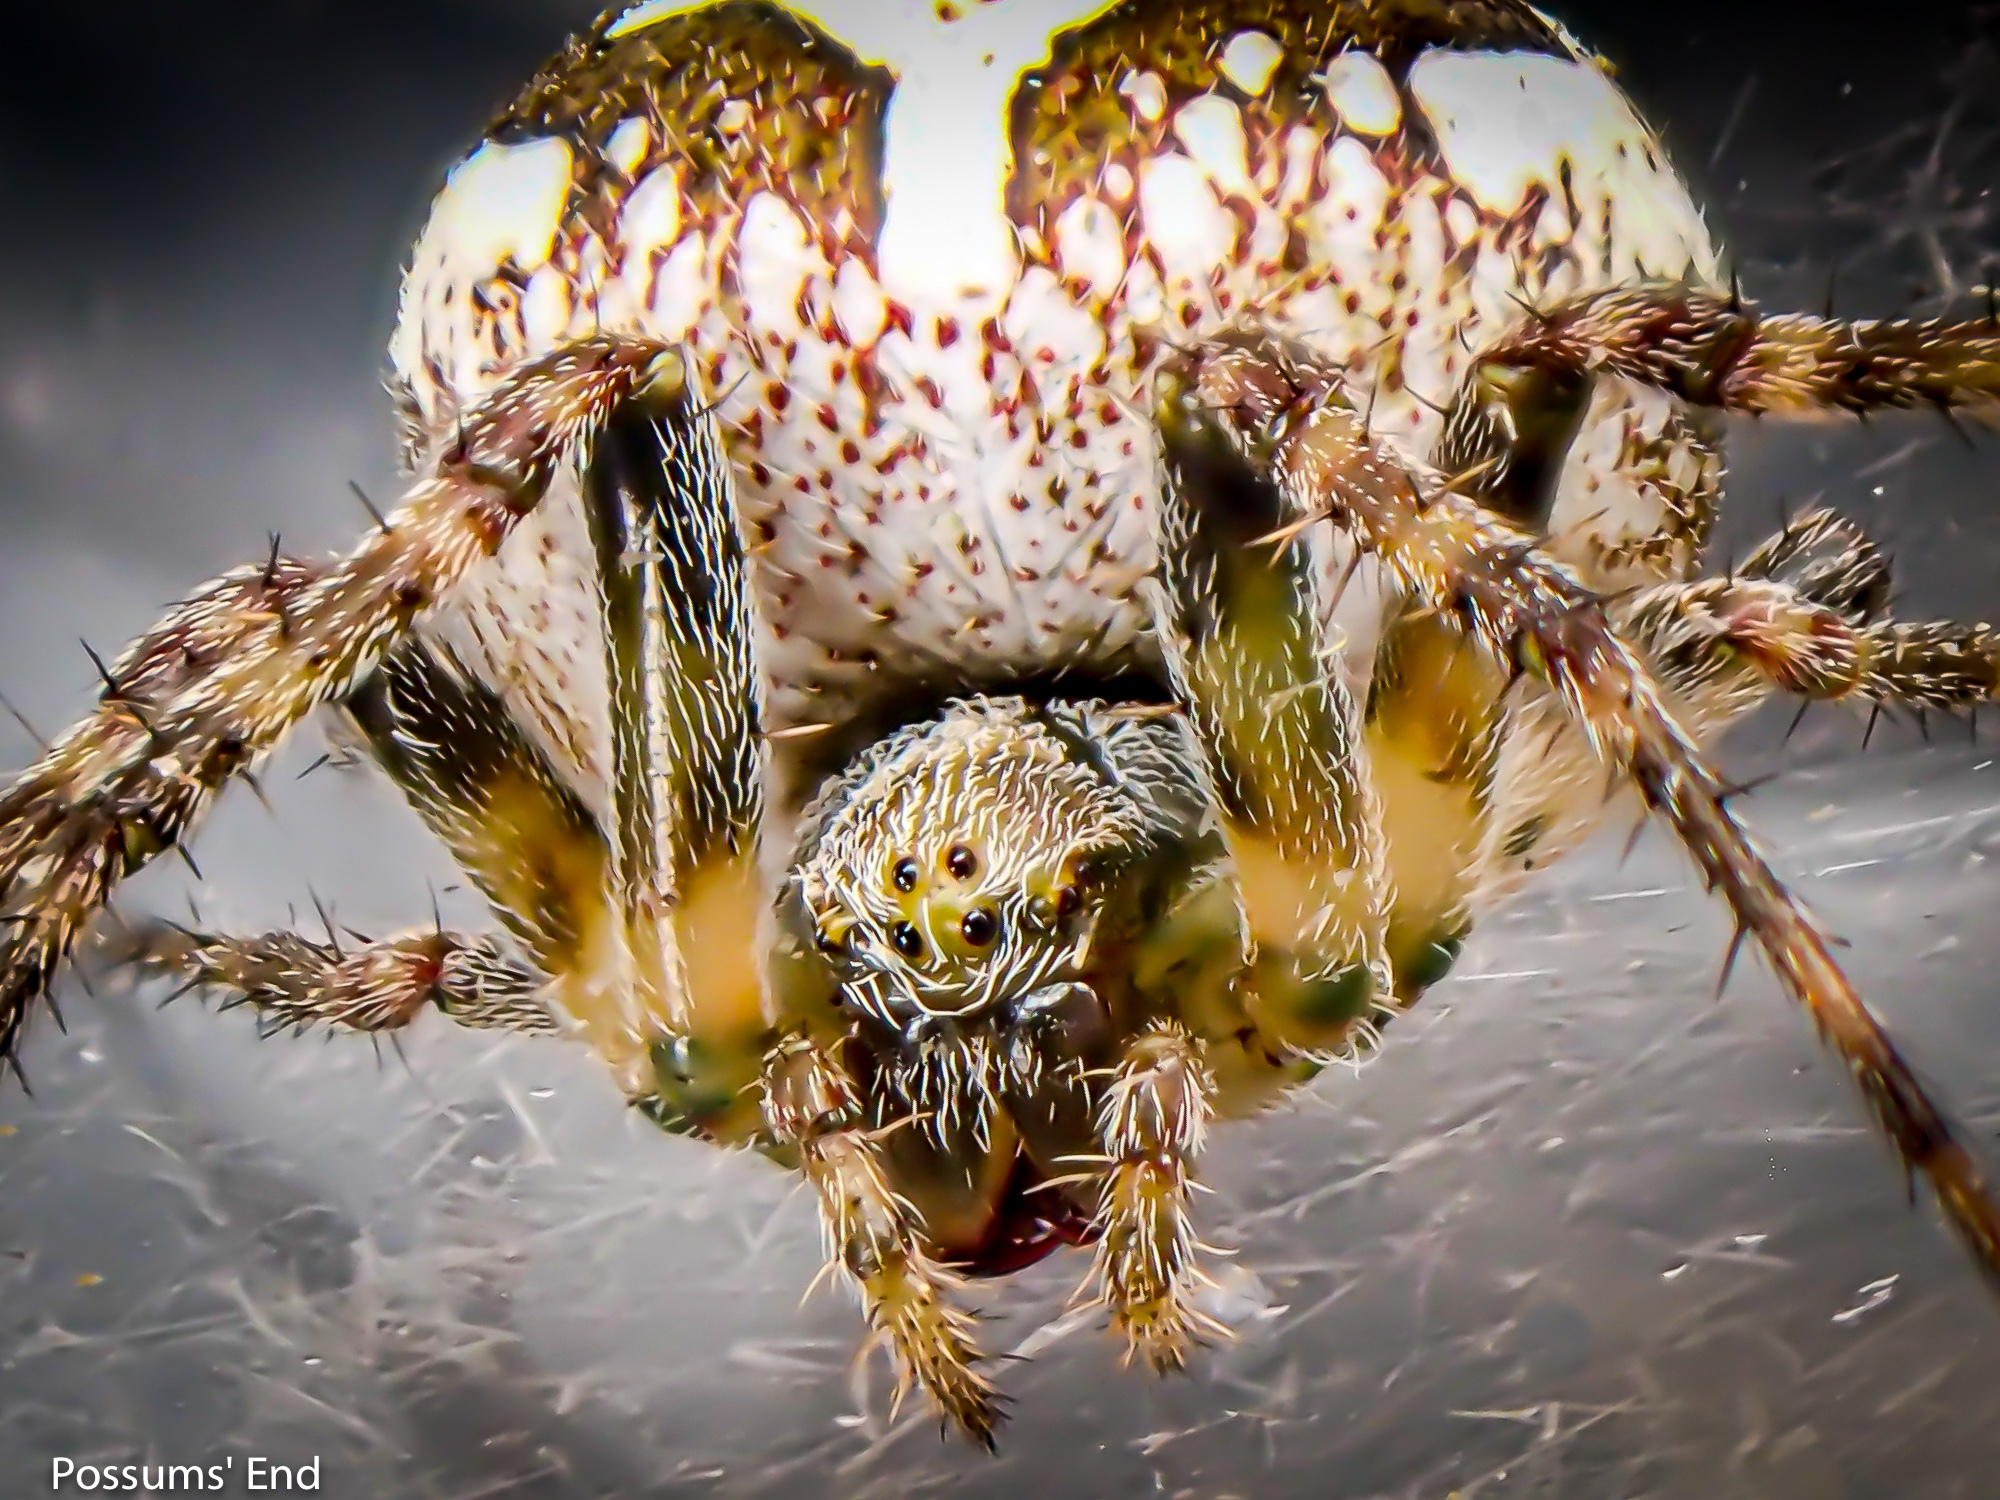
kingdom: Animalia
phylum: Arthropoda
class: Arachnida
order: Araneae
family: Araneidae
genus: Colaranea
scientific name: Colaranea verutum
